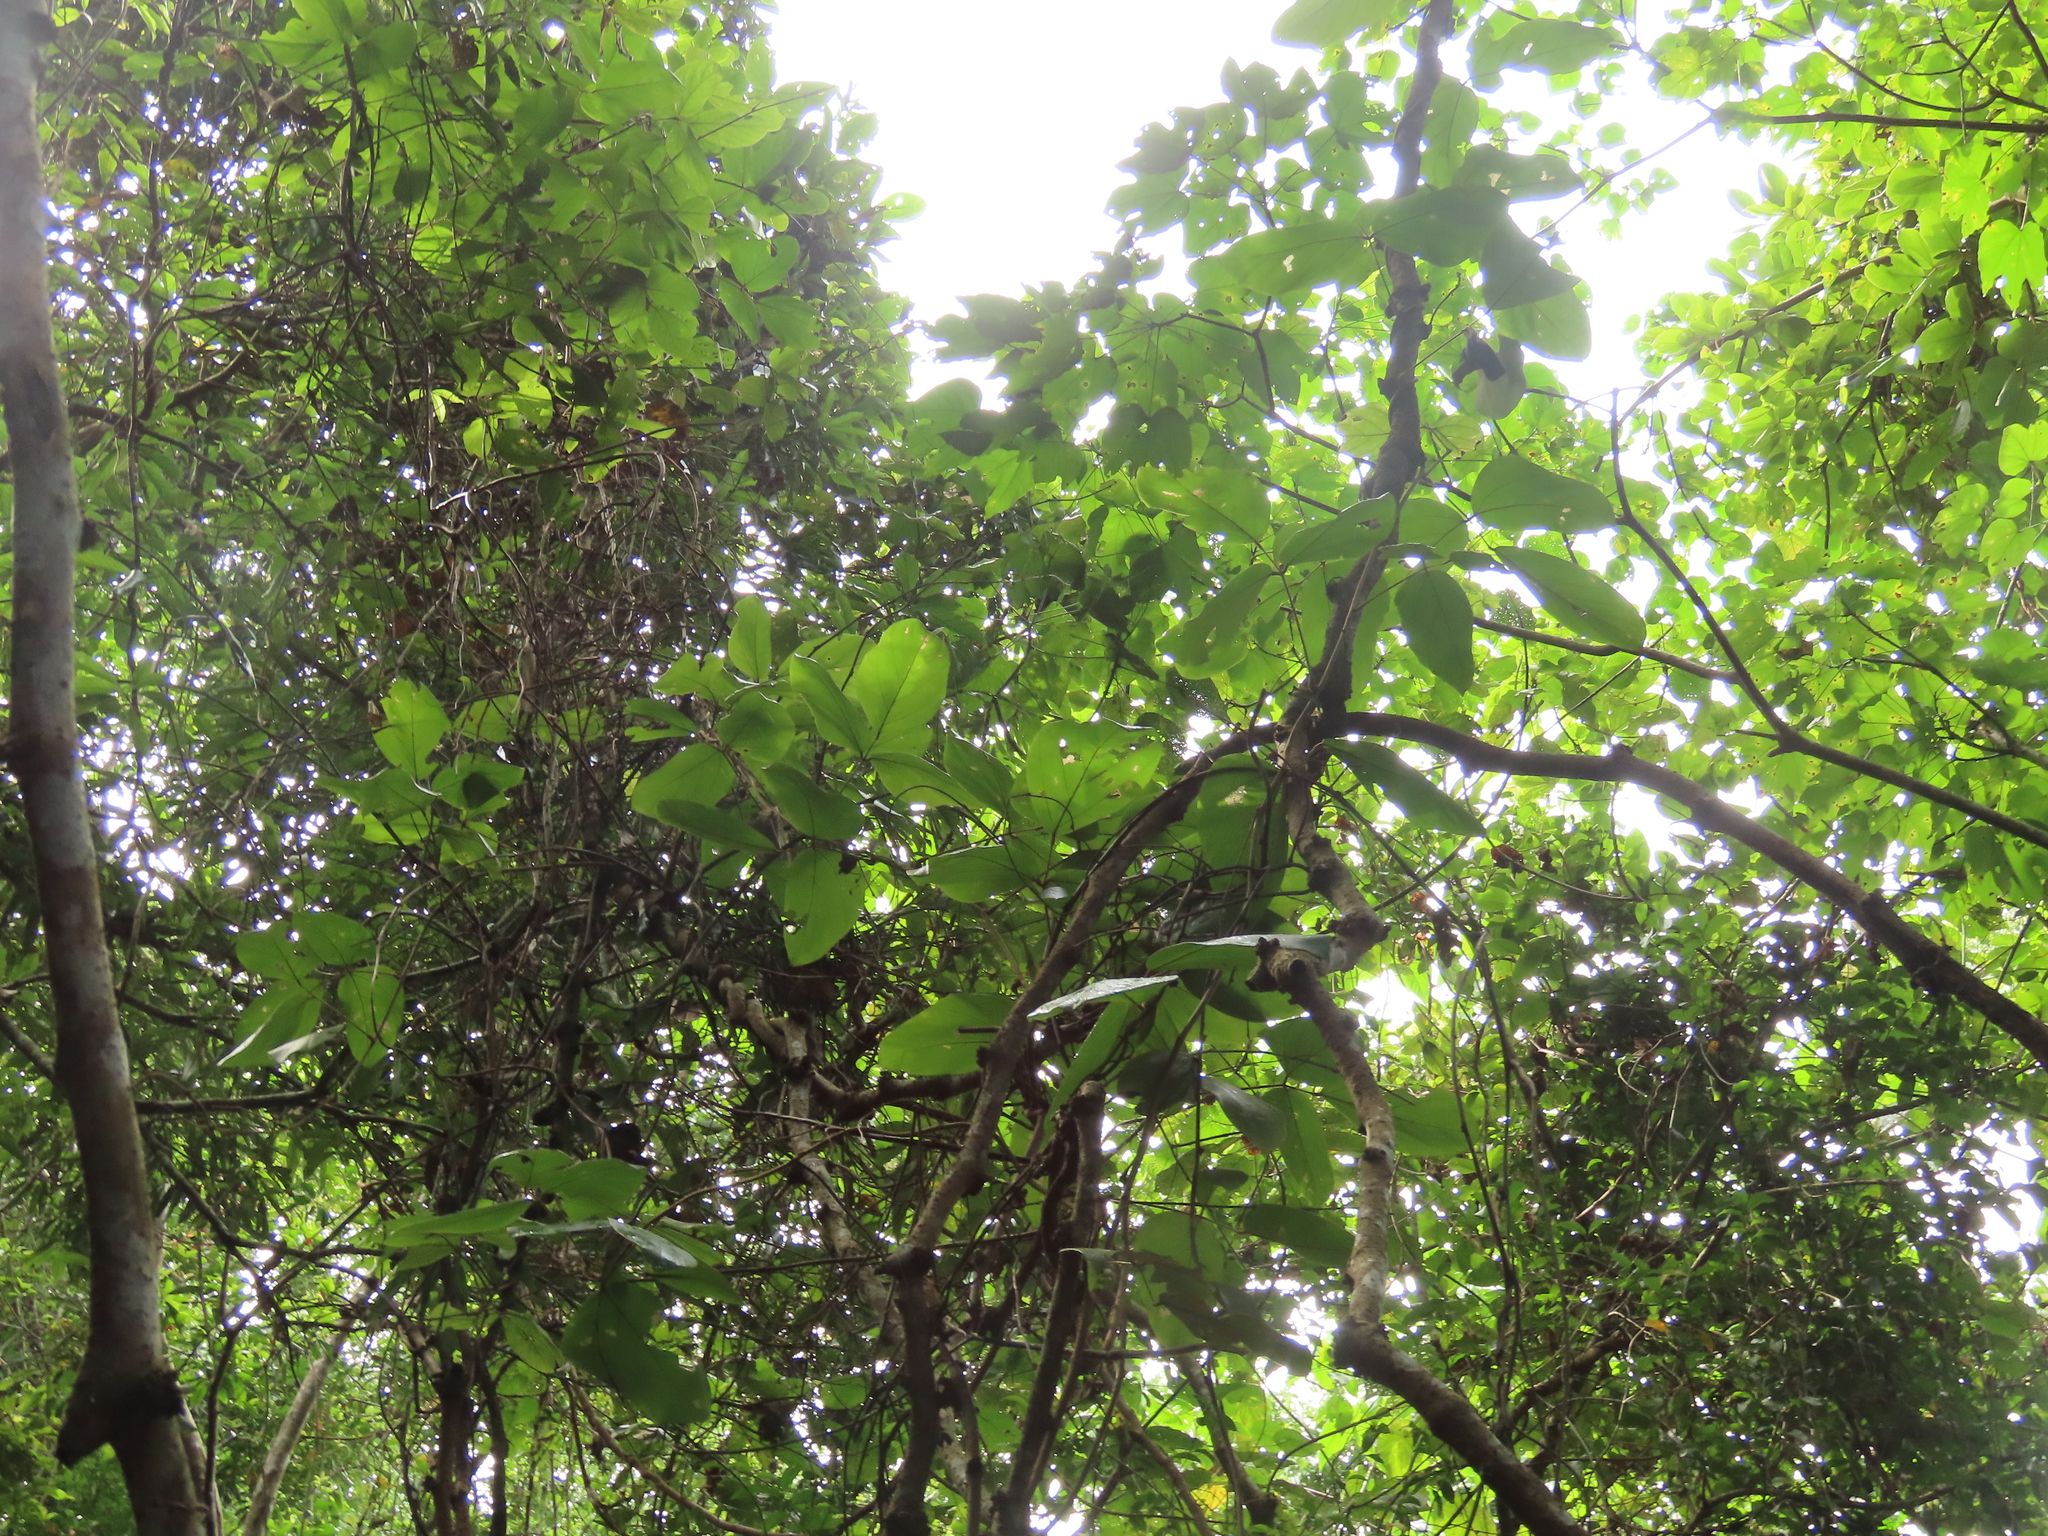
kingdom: Plantae
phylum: Tracheophyta
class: Magnoliopsida
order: Fabales
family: Fabaceae
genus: Mucuna
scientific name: Mucuna macrocarpa
